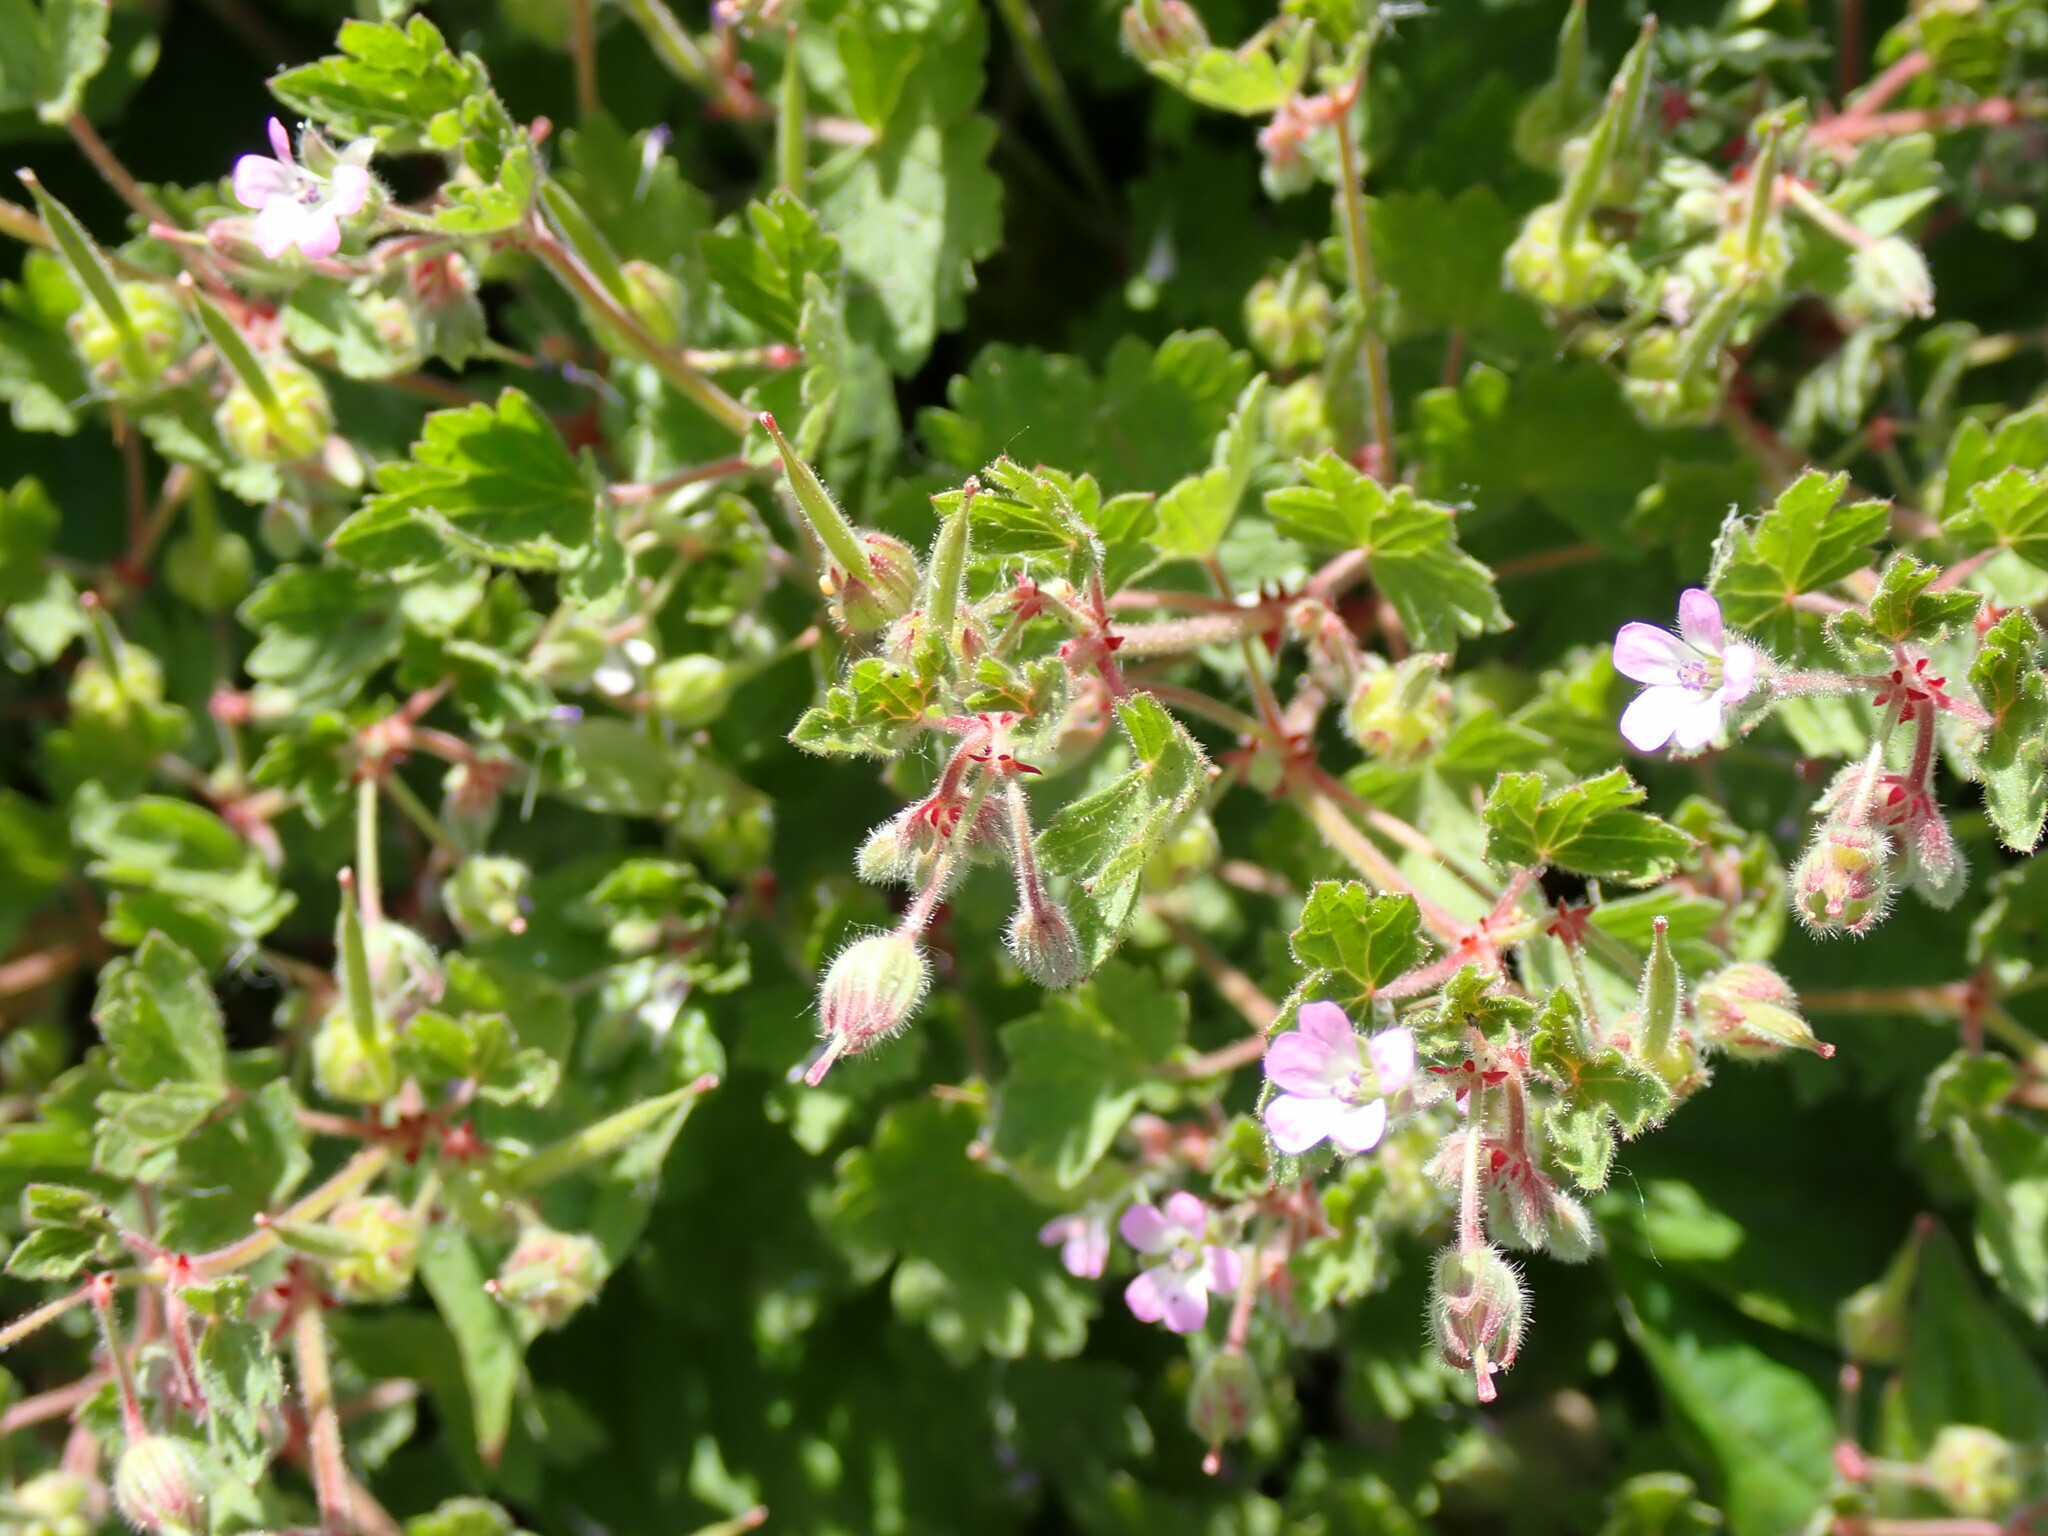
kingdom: Plantae
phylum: Tracheophyta
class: Magnoliopsida
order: Geraniales
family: Geraniaceae
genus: Geranium
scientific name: Geranium rotundifolium
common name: Round-leaved crane's-bill
